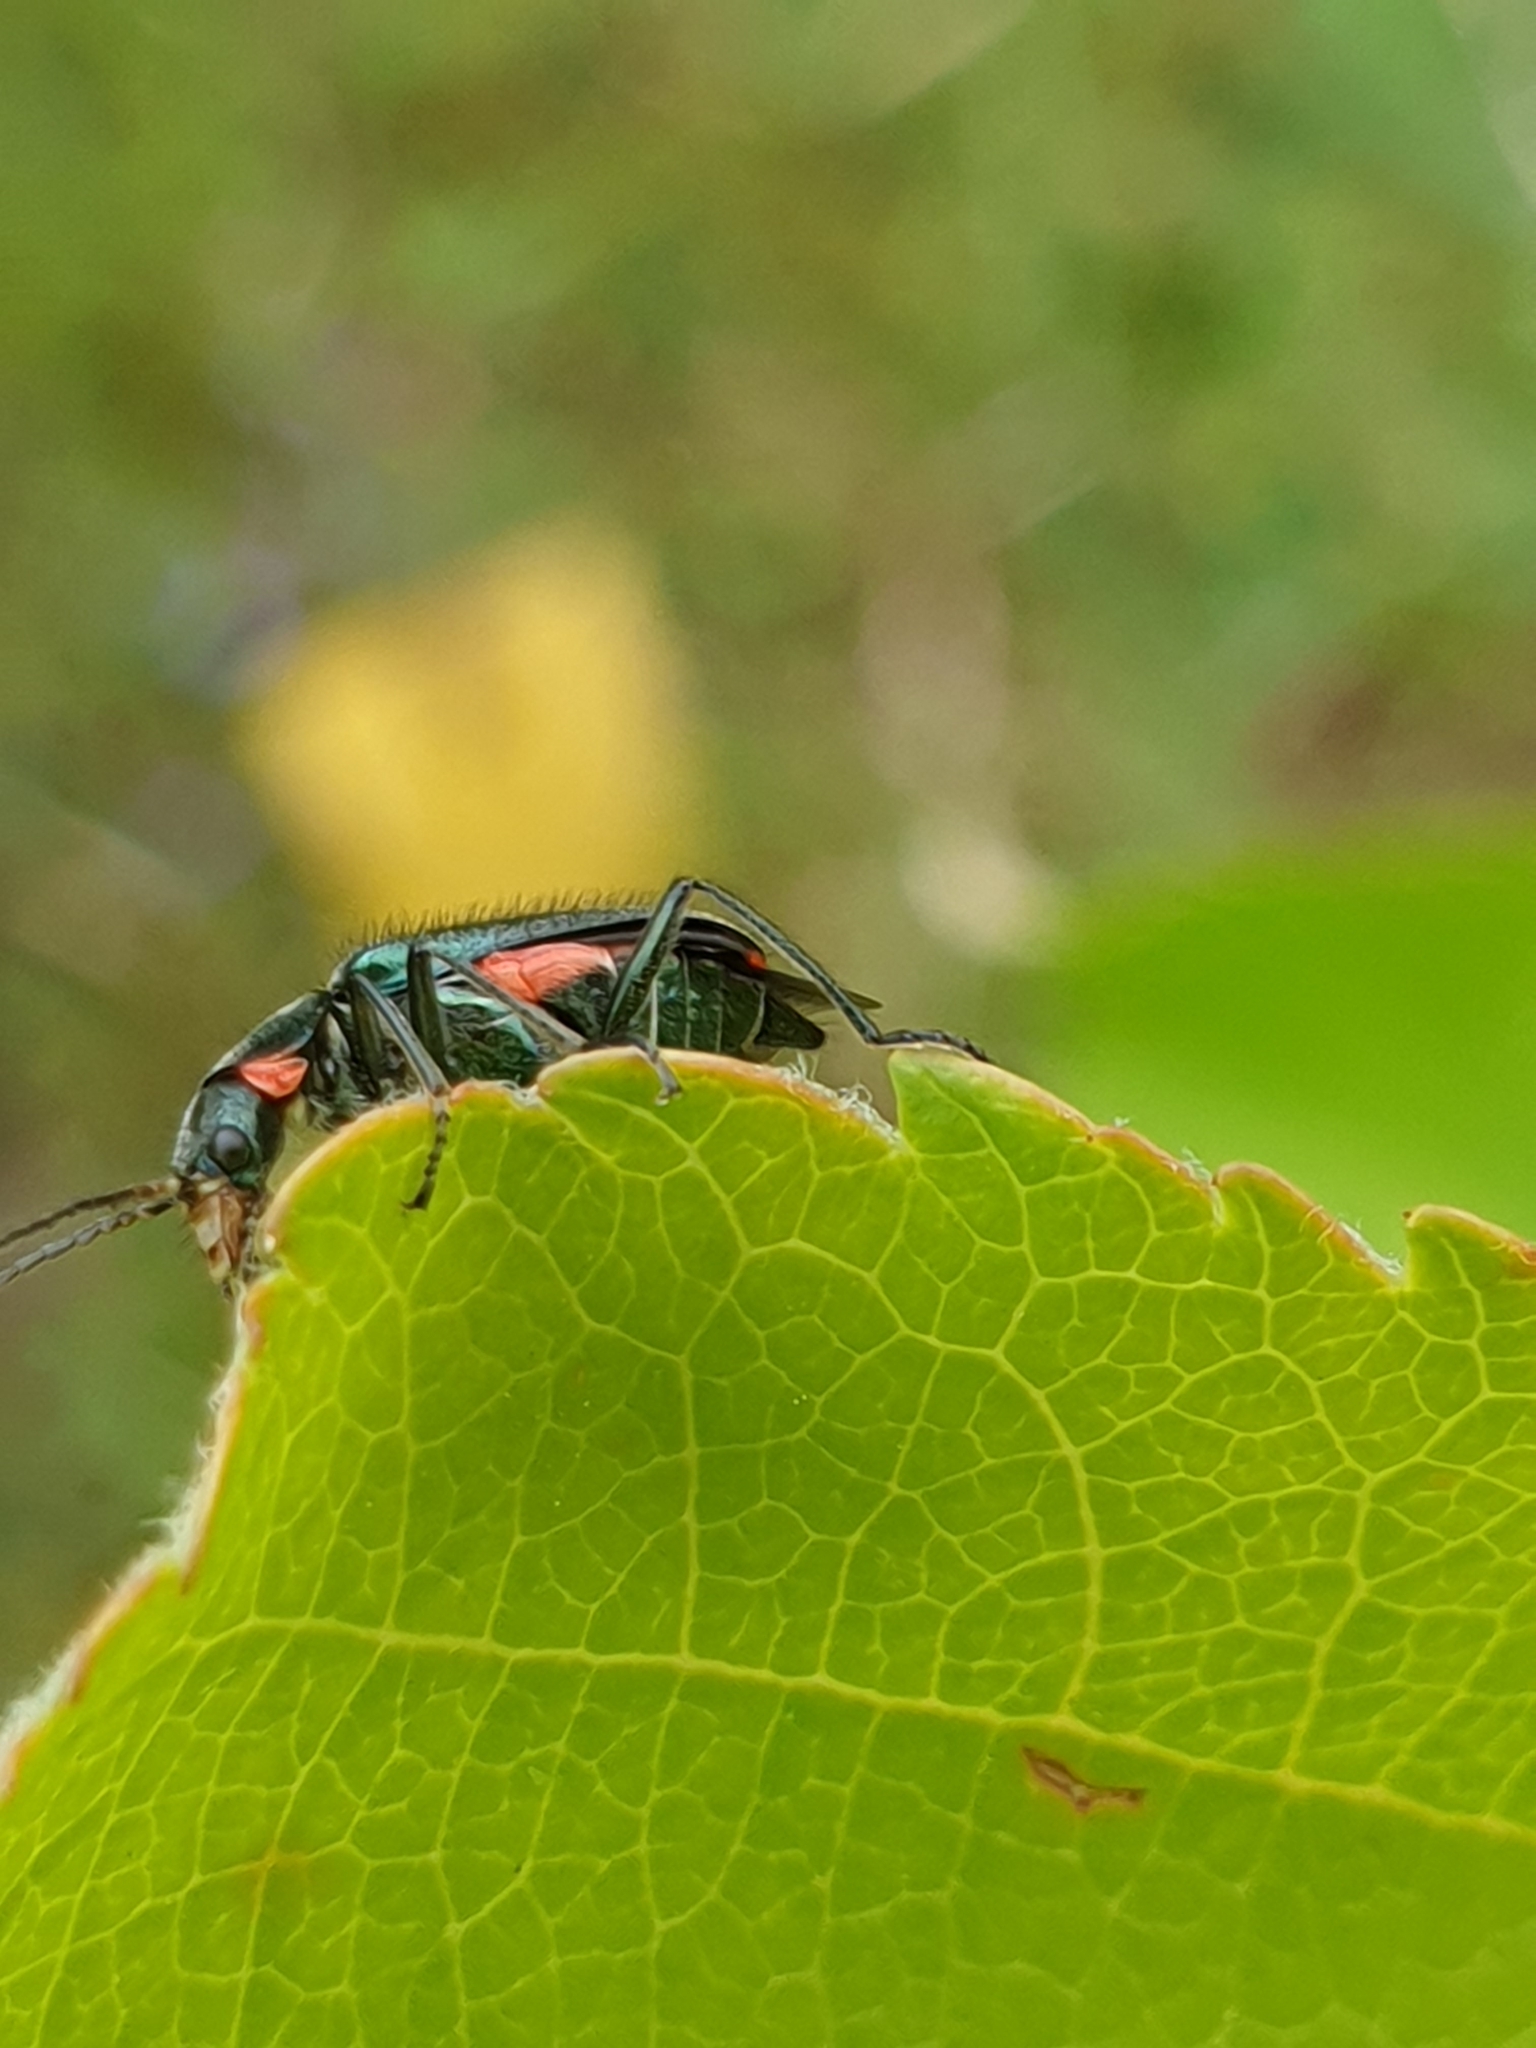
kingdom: Animalia
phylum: Arthropoda
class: Insecta
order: Coleoptera
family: Melyridae
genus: Malachius
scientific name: Malachius bipustulatus
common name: Malachite beetle
